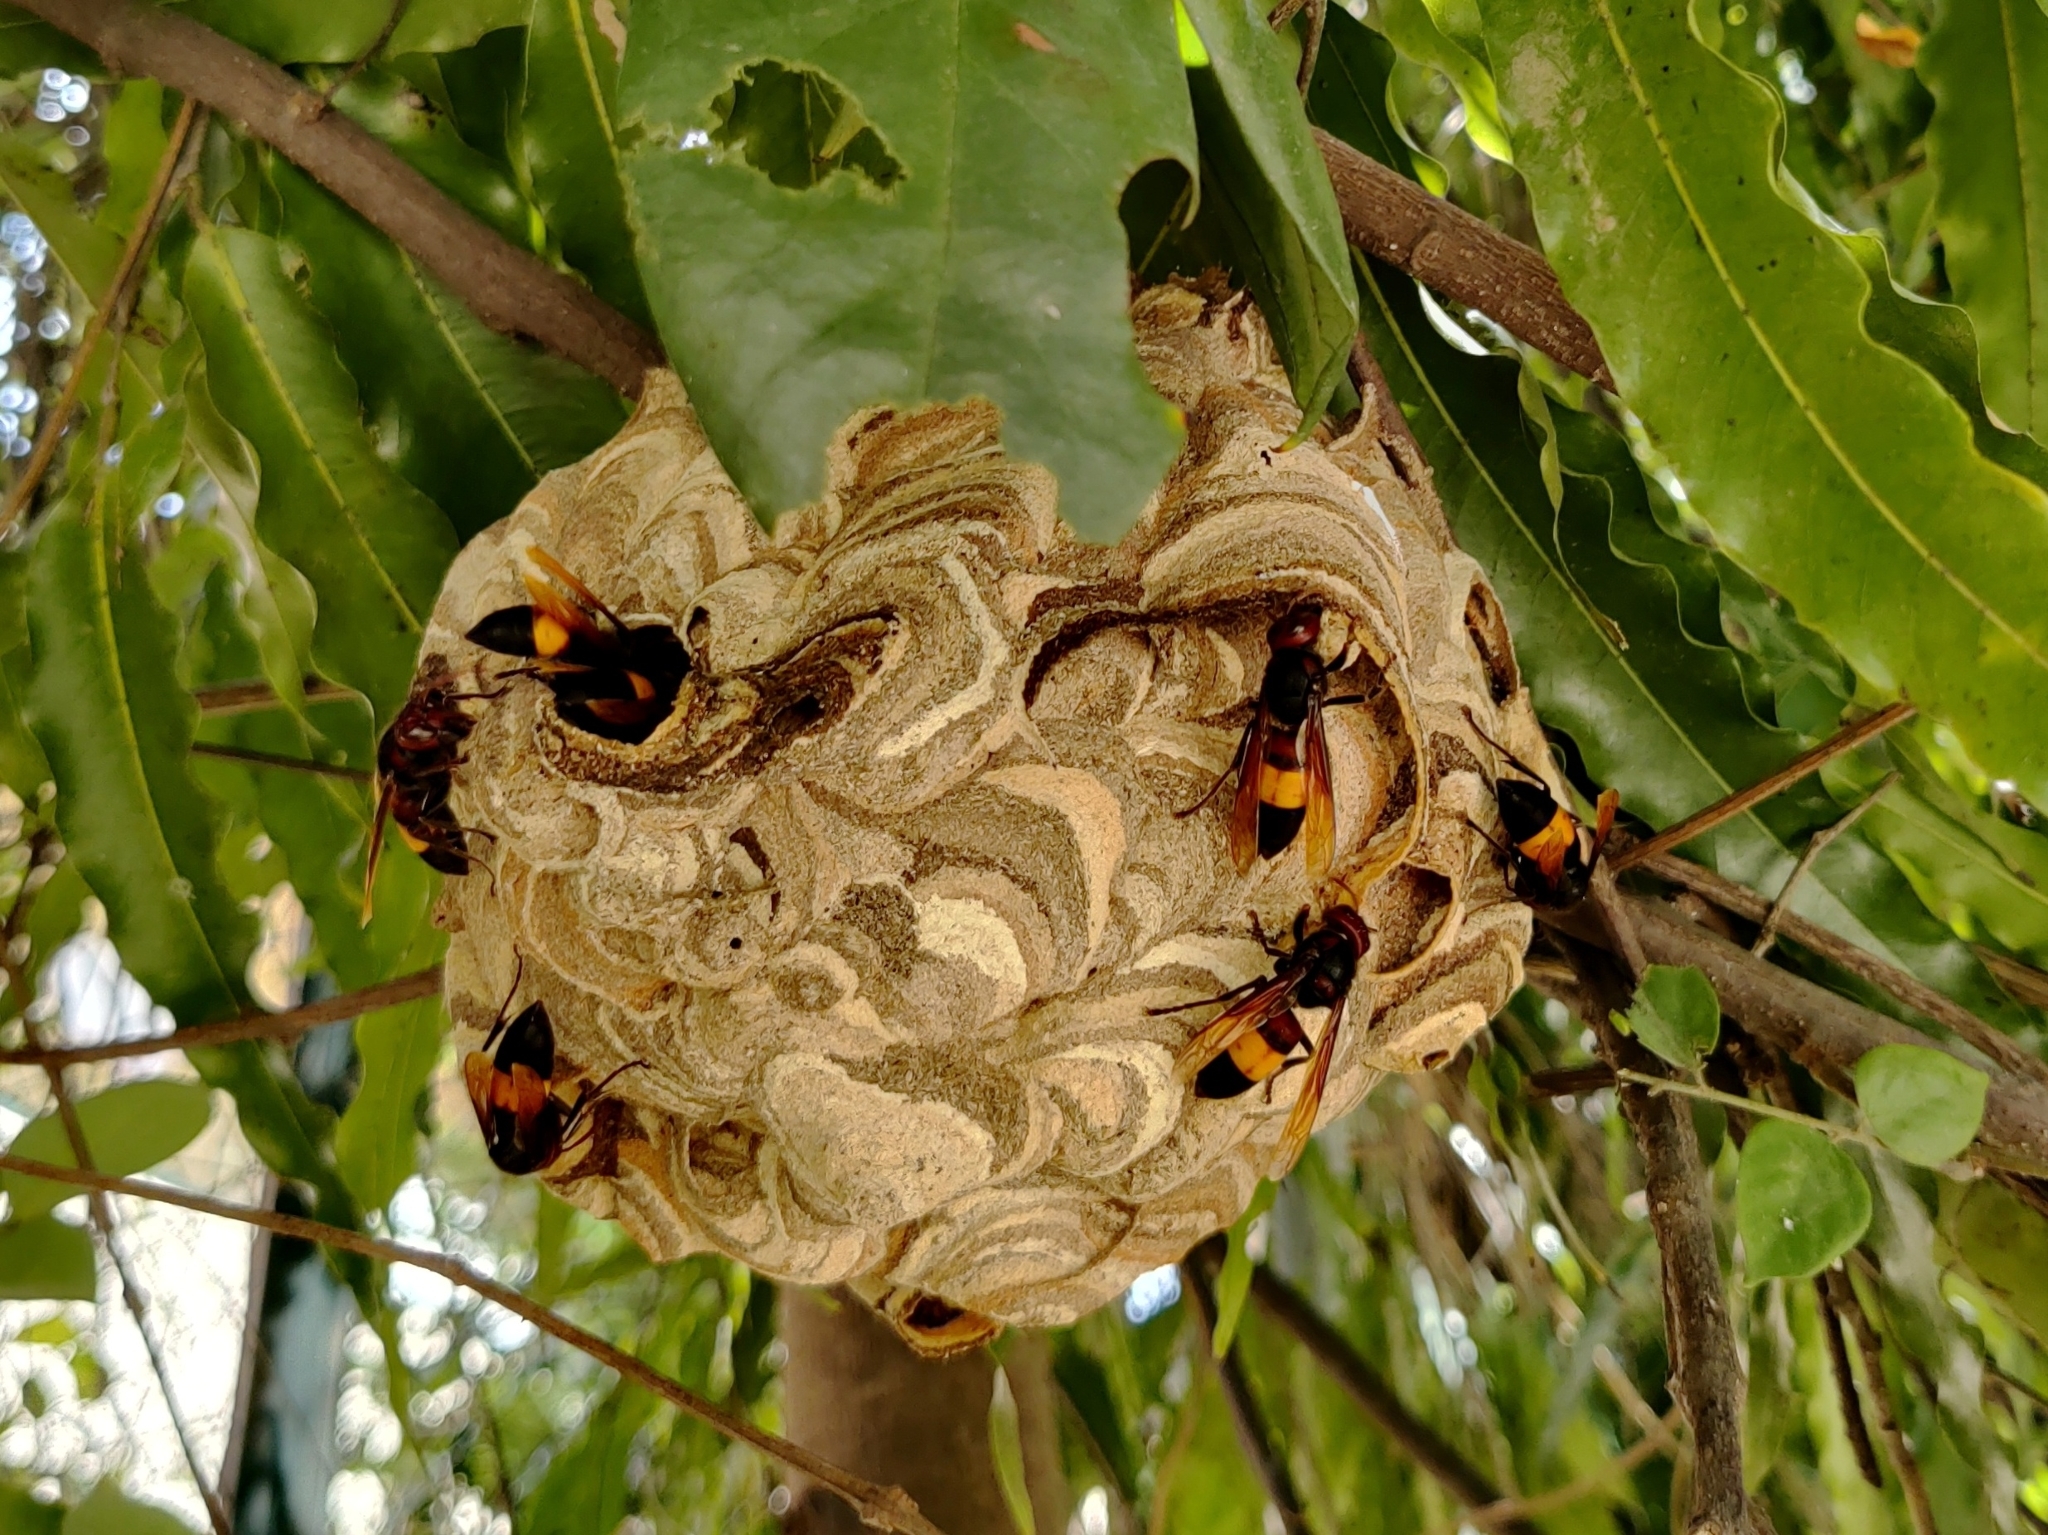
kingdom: Animalia
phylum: Arthropoda
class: Insecta
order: Hymenoptera
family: Vespidae
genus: Vespa
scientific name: Vespa affinis
